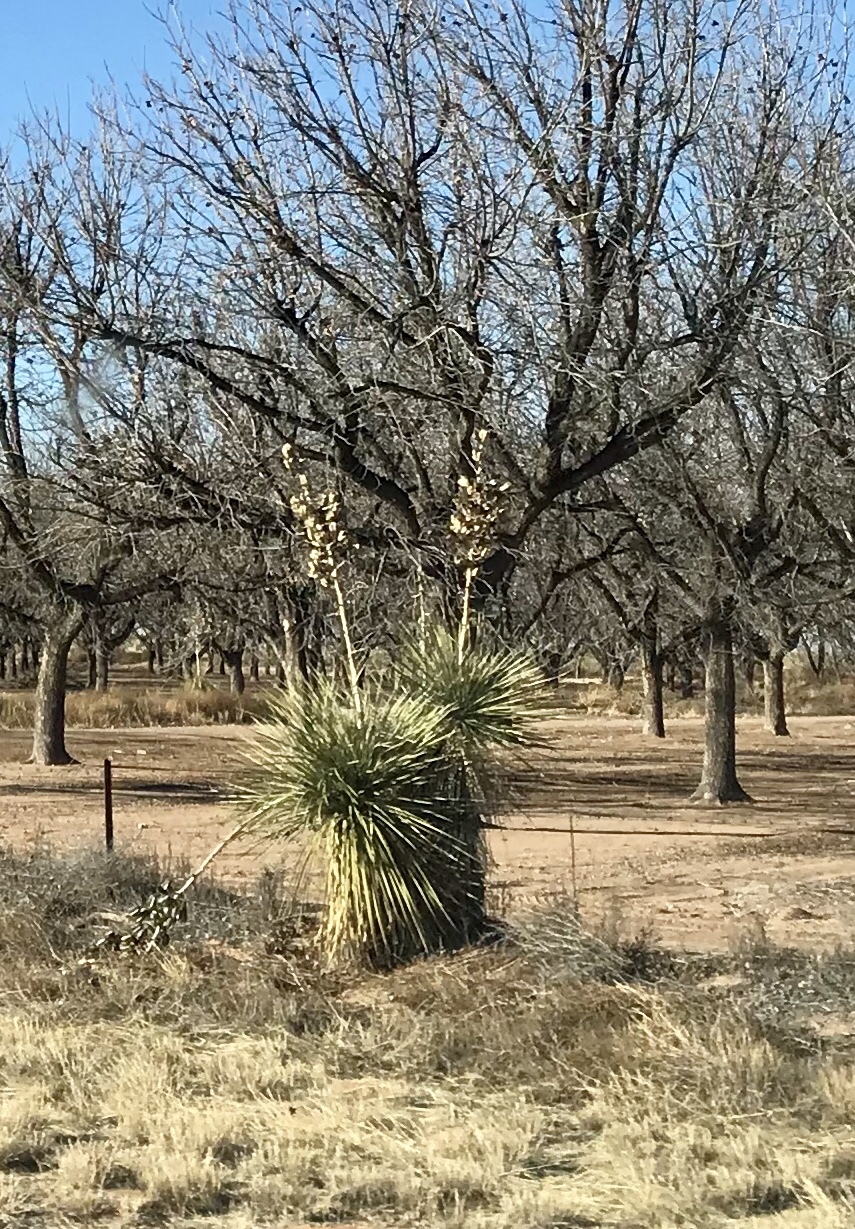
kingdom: Plantae
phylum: Tracheophyta
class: Liliopsida
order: Asparagales
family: Asparagaceae
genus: Yucca
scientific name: Yucca elata
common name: Palmella
